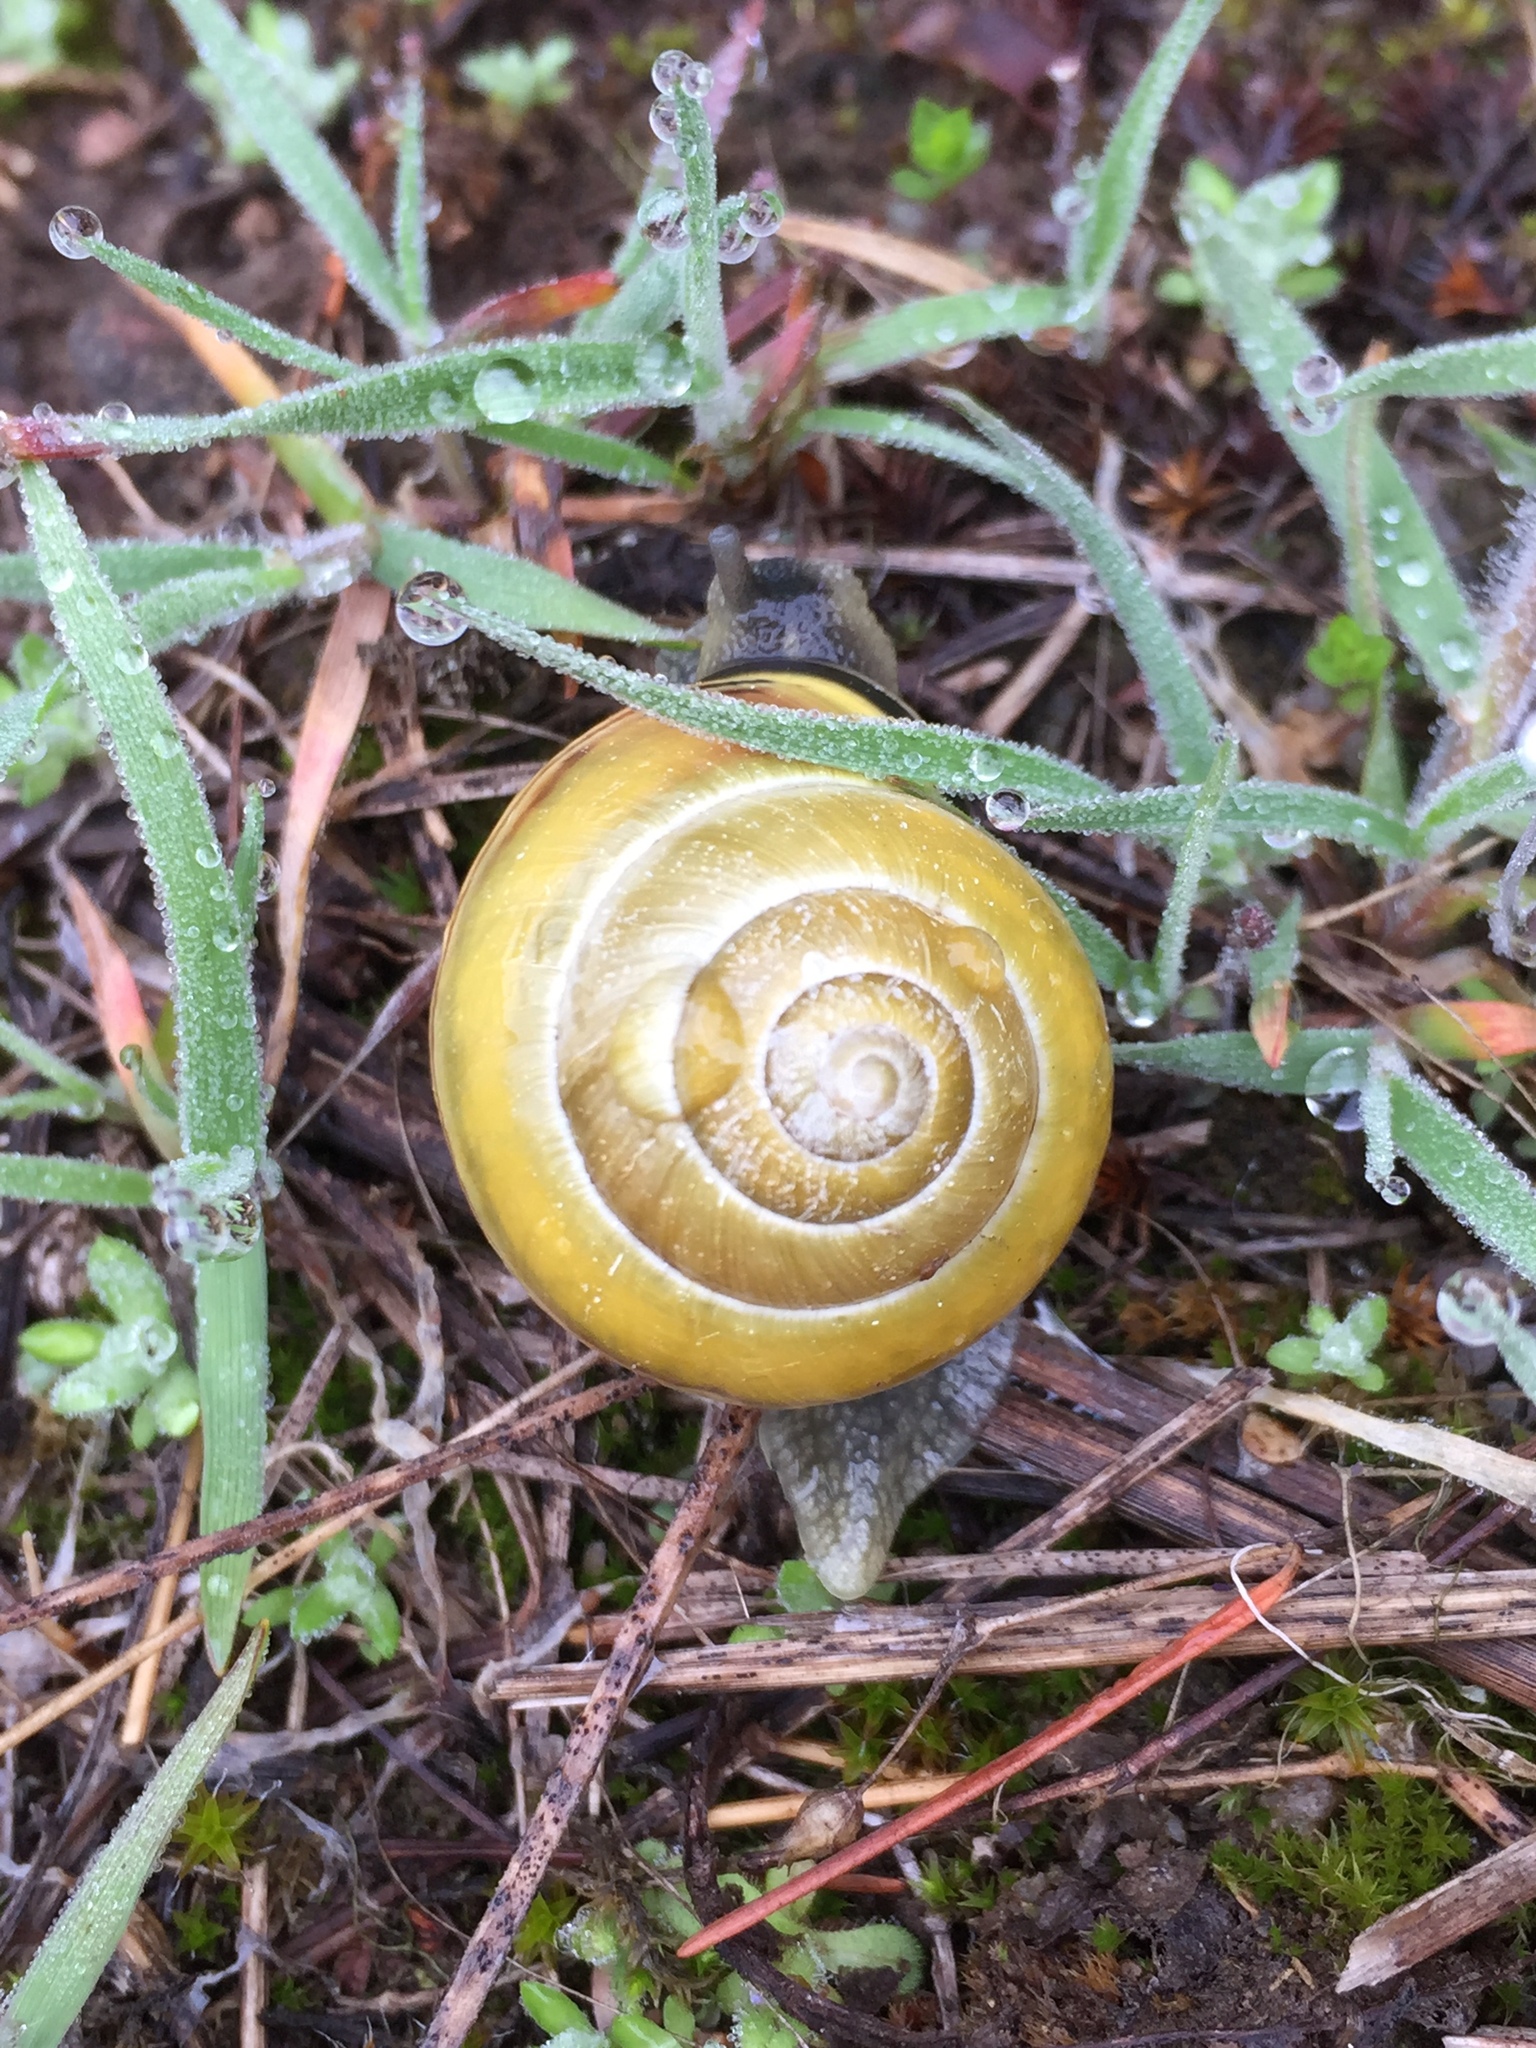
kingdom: Animalia
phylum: Mollusca
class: Gastropoda
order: Stylommatophora
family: Helicidae
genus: Cepaea
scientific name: Cepaea nemoralis
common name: Grovesnail
